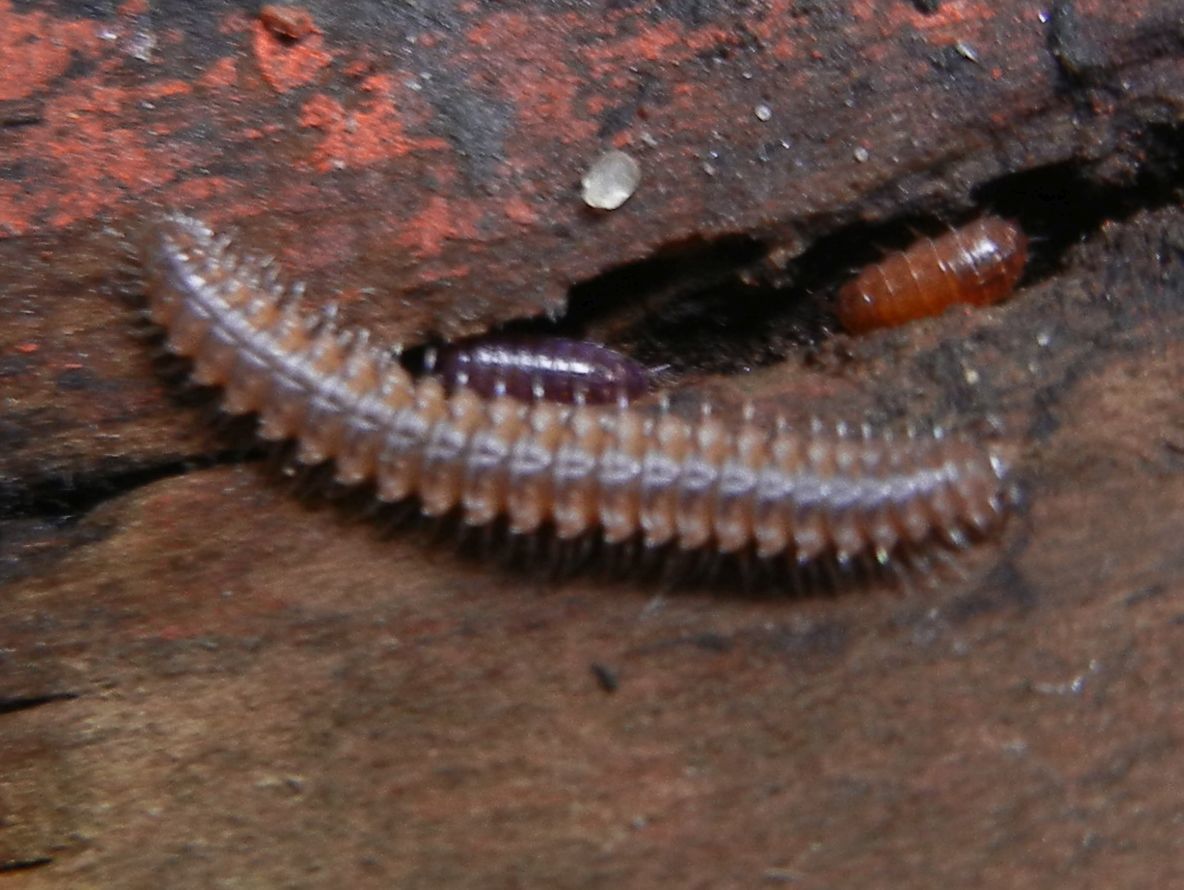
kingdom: Animalia
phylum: Arthropoda
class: Diplopoda
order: Chordeumatida
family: Craspedosomatidae
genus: Nanogona
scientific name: Nanogona polydesmoides
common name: Eyed flat-backed millipede
